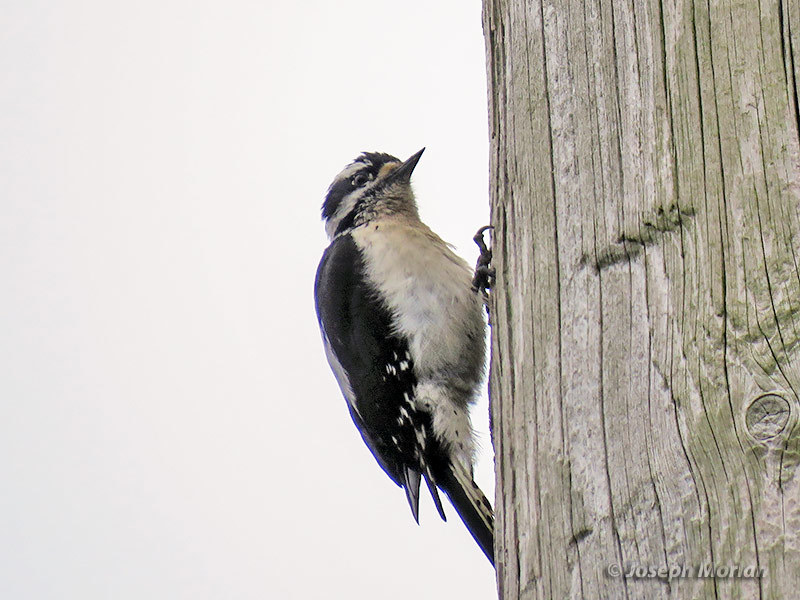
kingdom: Animalia
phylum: Chordata
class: Aves
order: Piciformes
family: Picidae
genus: Dryobates
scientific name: Dryobates pubescens
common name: Downy woodpecker
